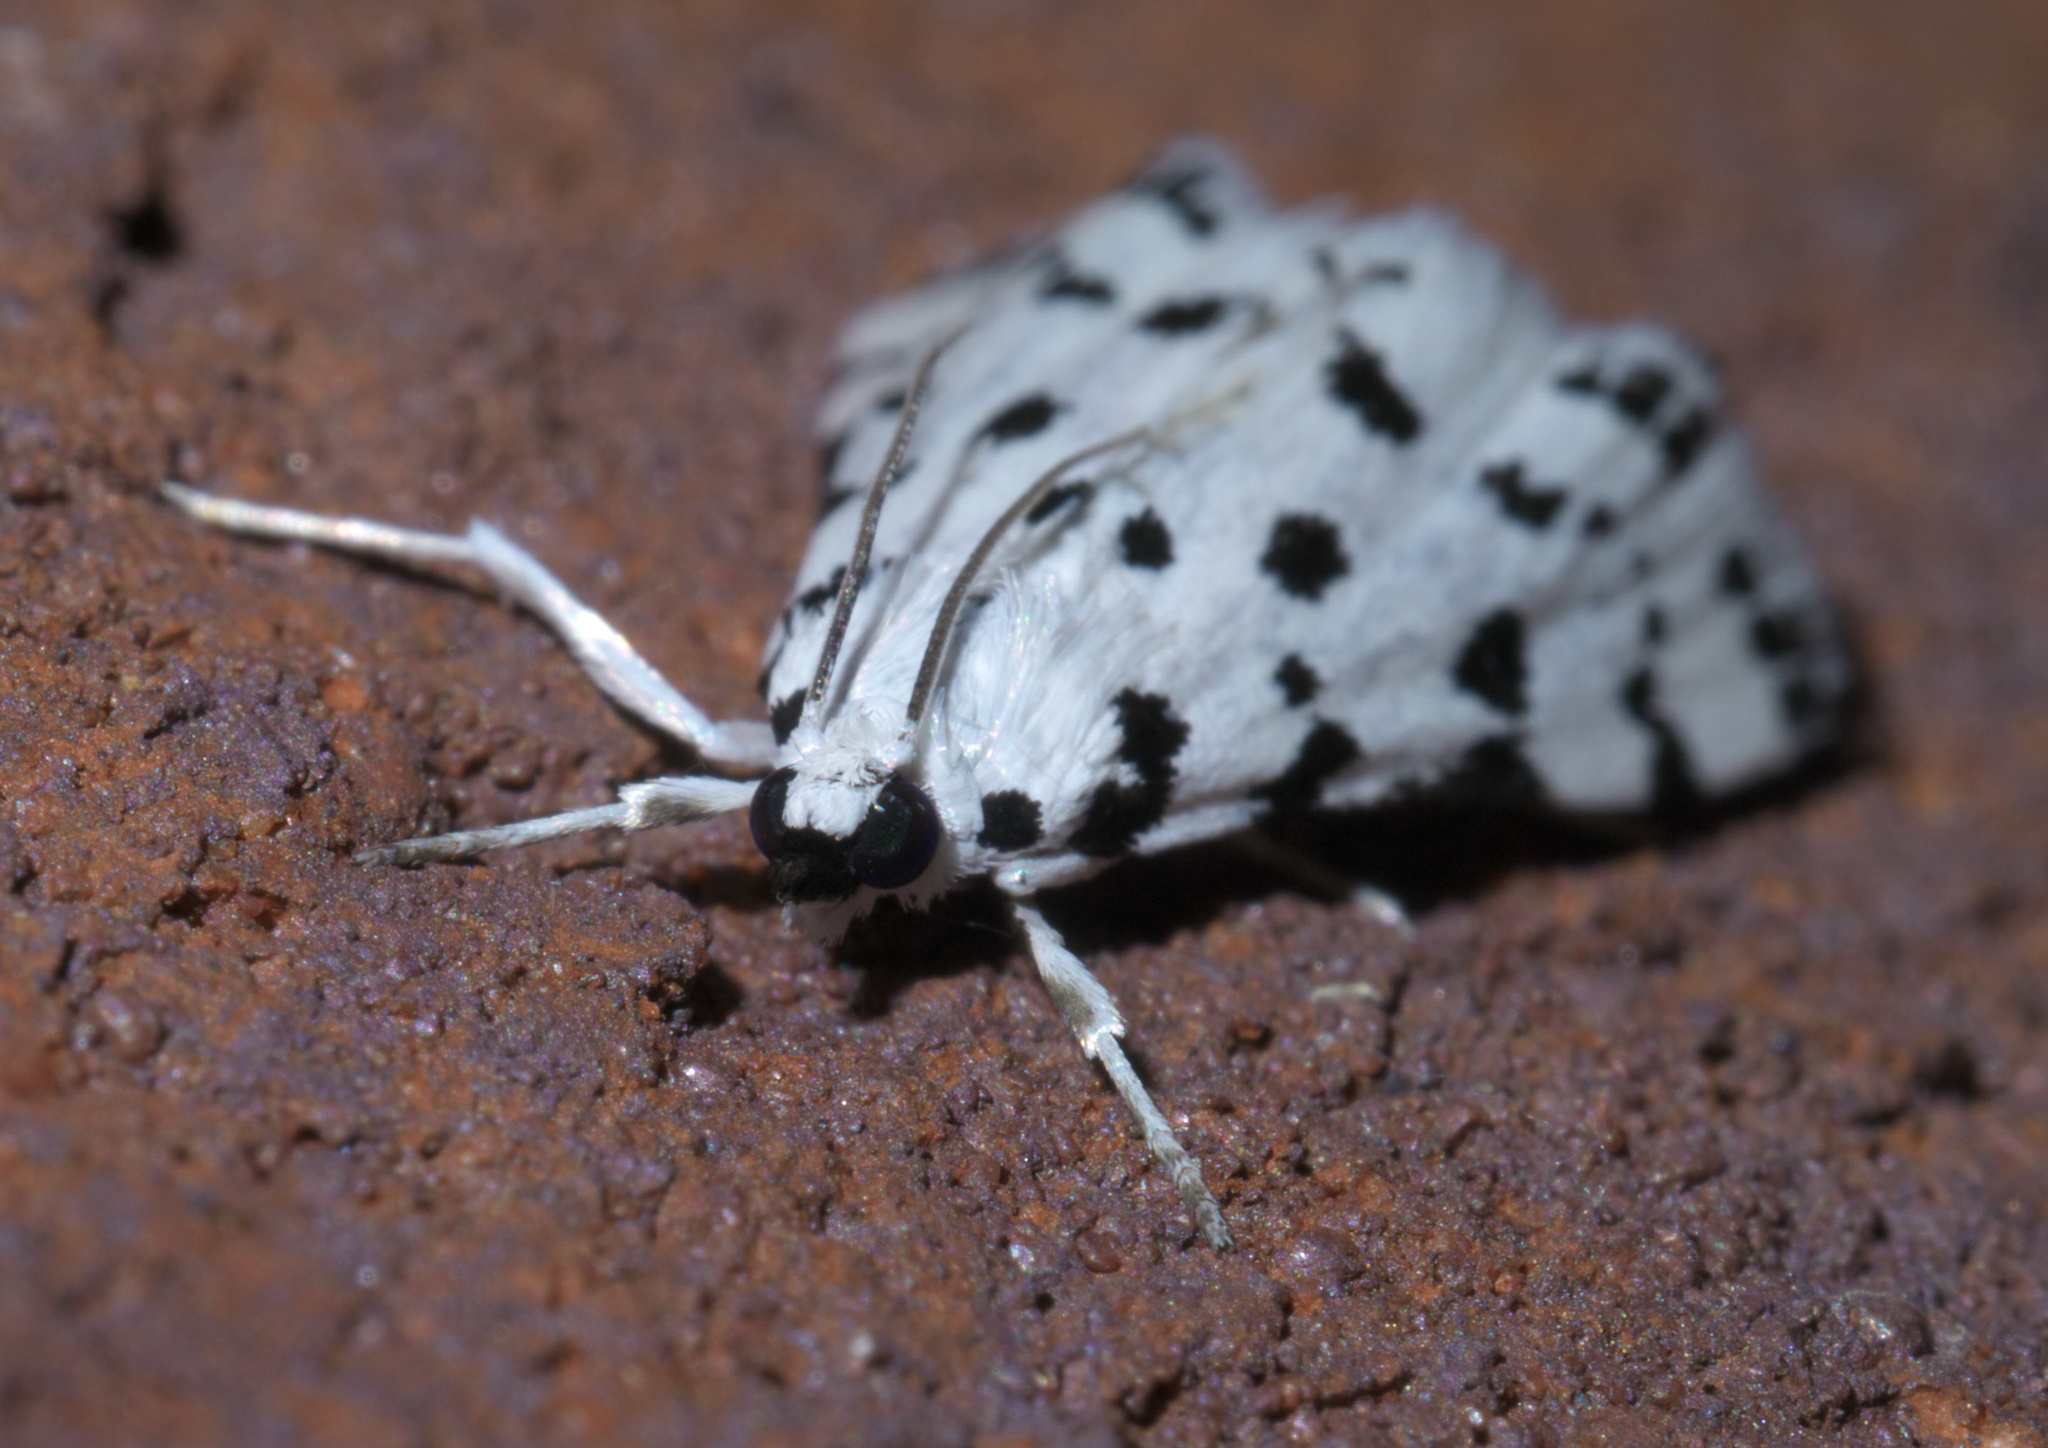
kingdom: Animalia
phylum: Arthropoda
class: Insecta
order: Lepidoptera
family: Crambidae
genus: Eustixia
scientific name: Eustixia pupula
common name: American cabbage pearl
